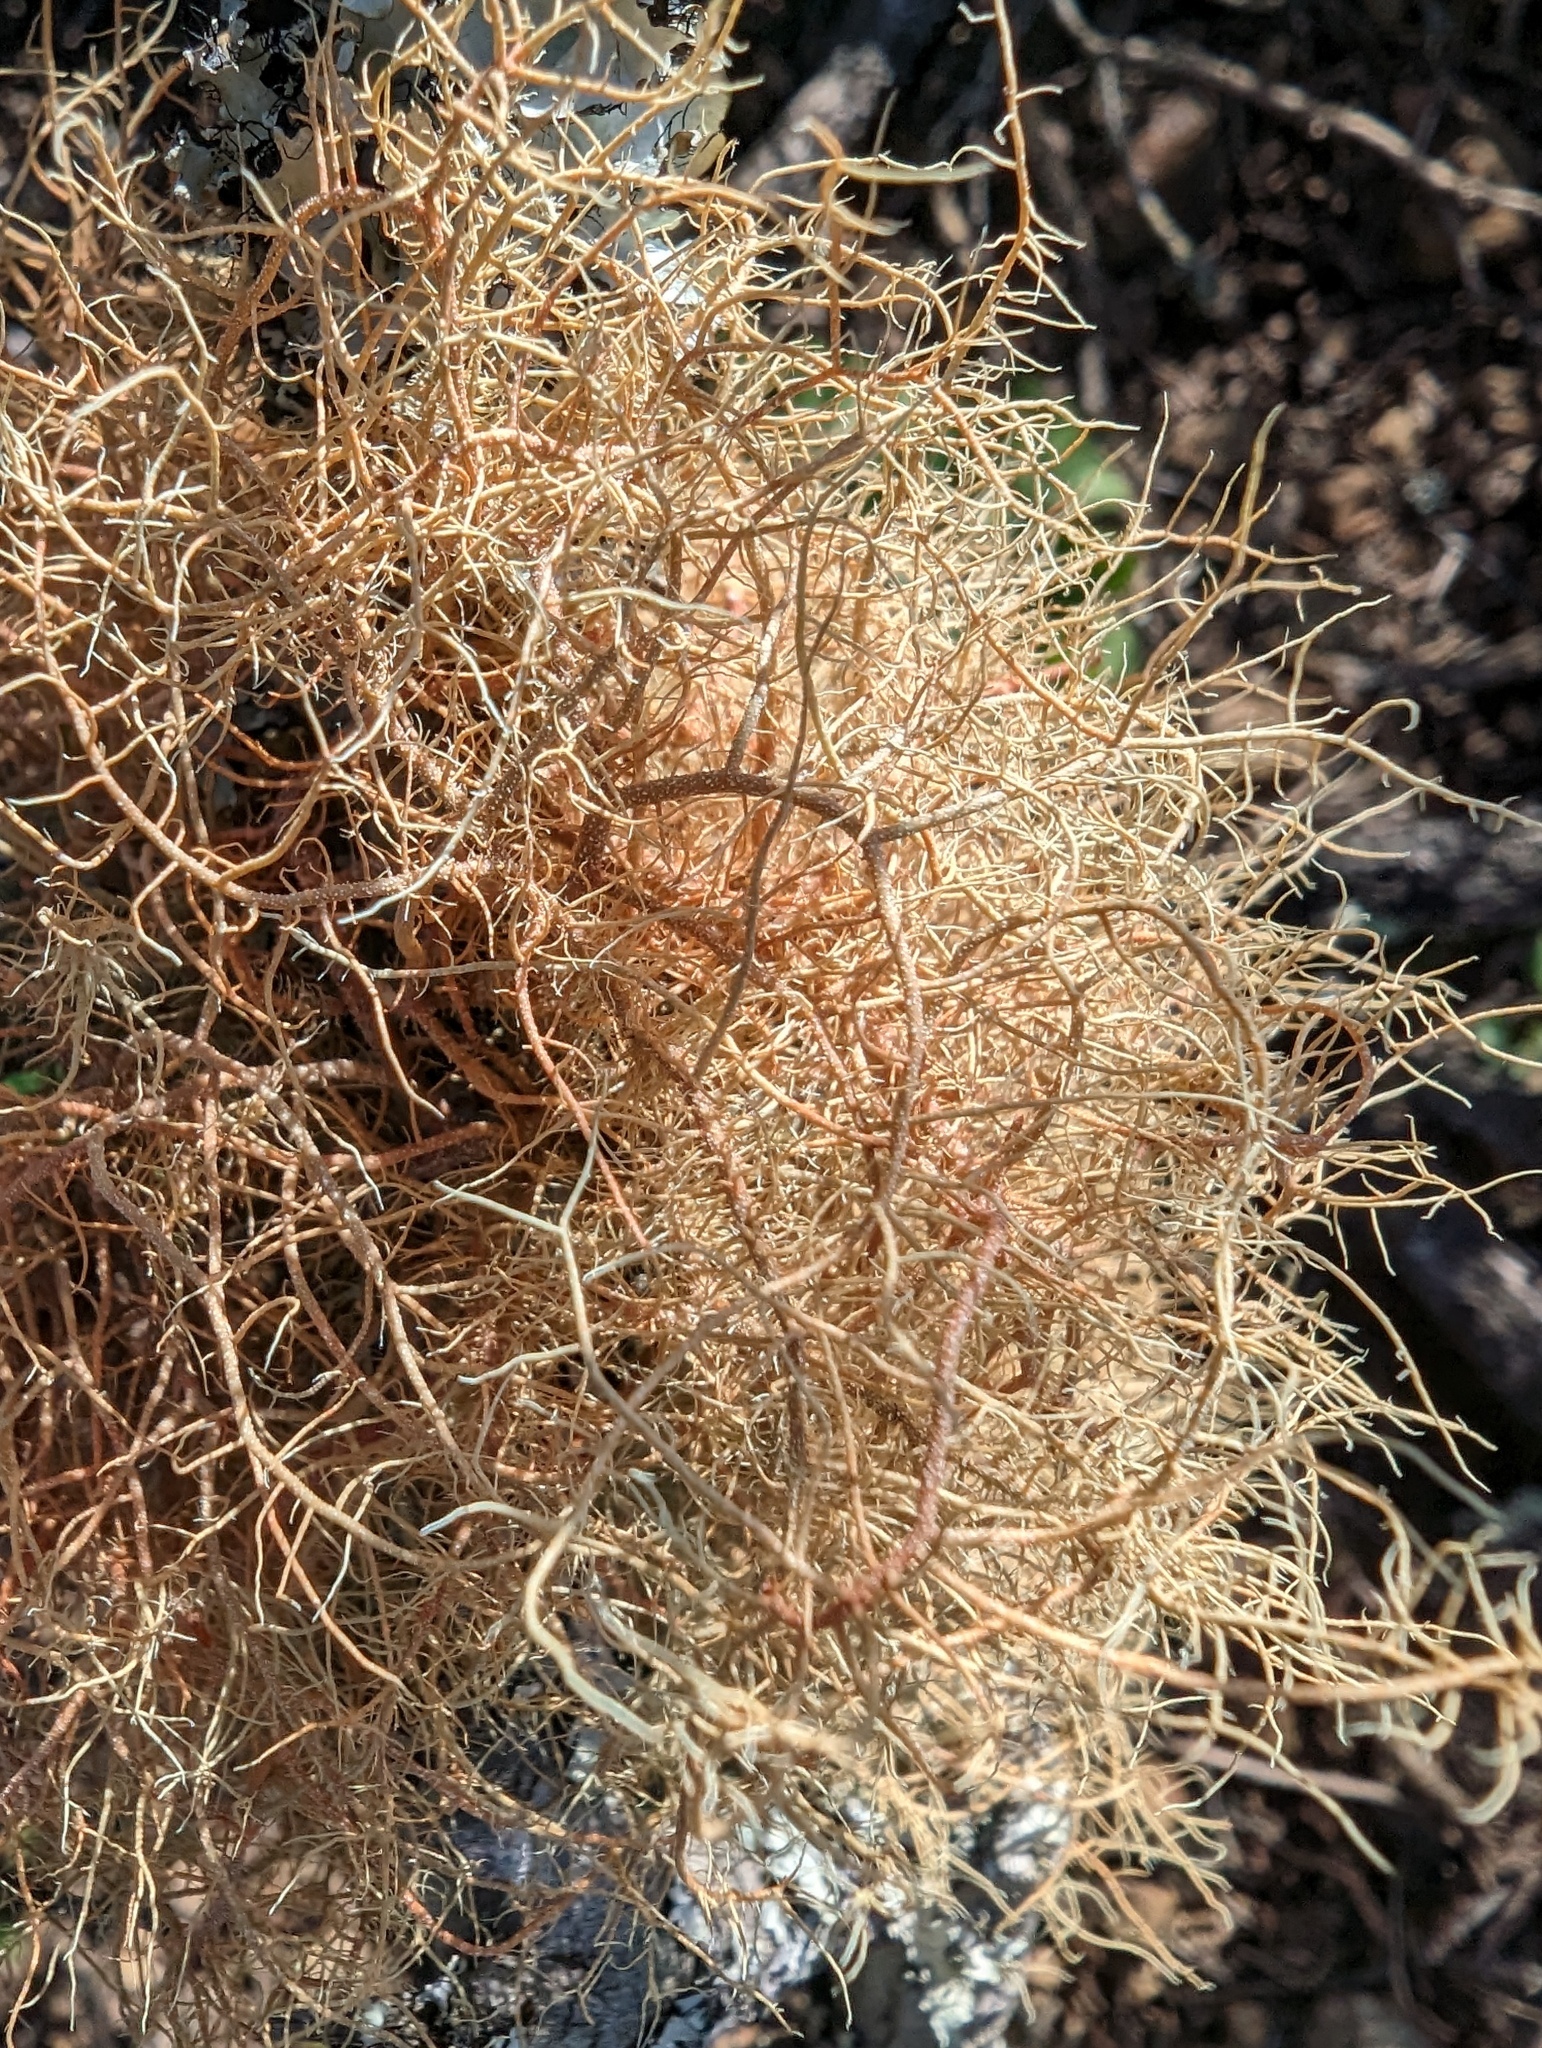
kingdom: Fungi
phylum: Ascomycota
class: Lecanoromycetes
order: Lecanorales
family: Parmeliaceae
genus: Usnea
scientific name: Usnea rubicunda
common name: Red beard lichen
